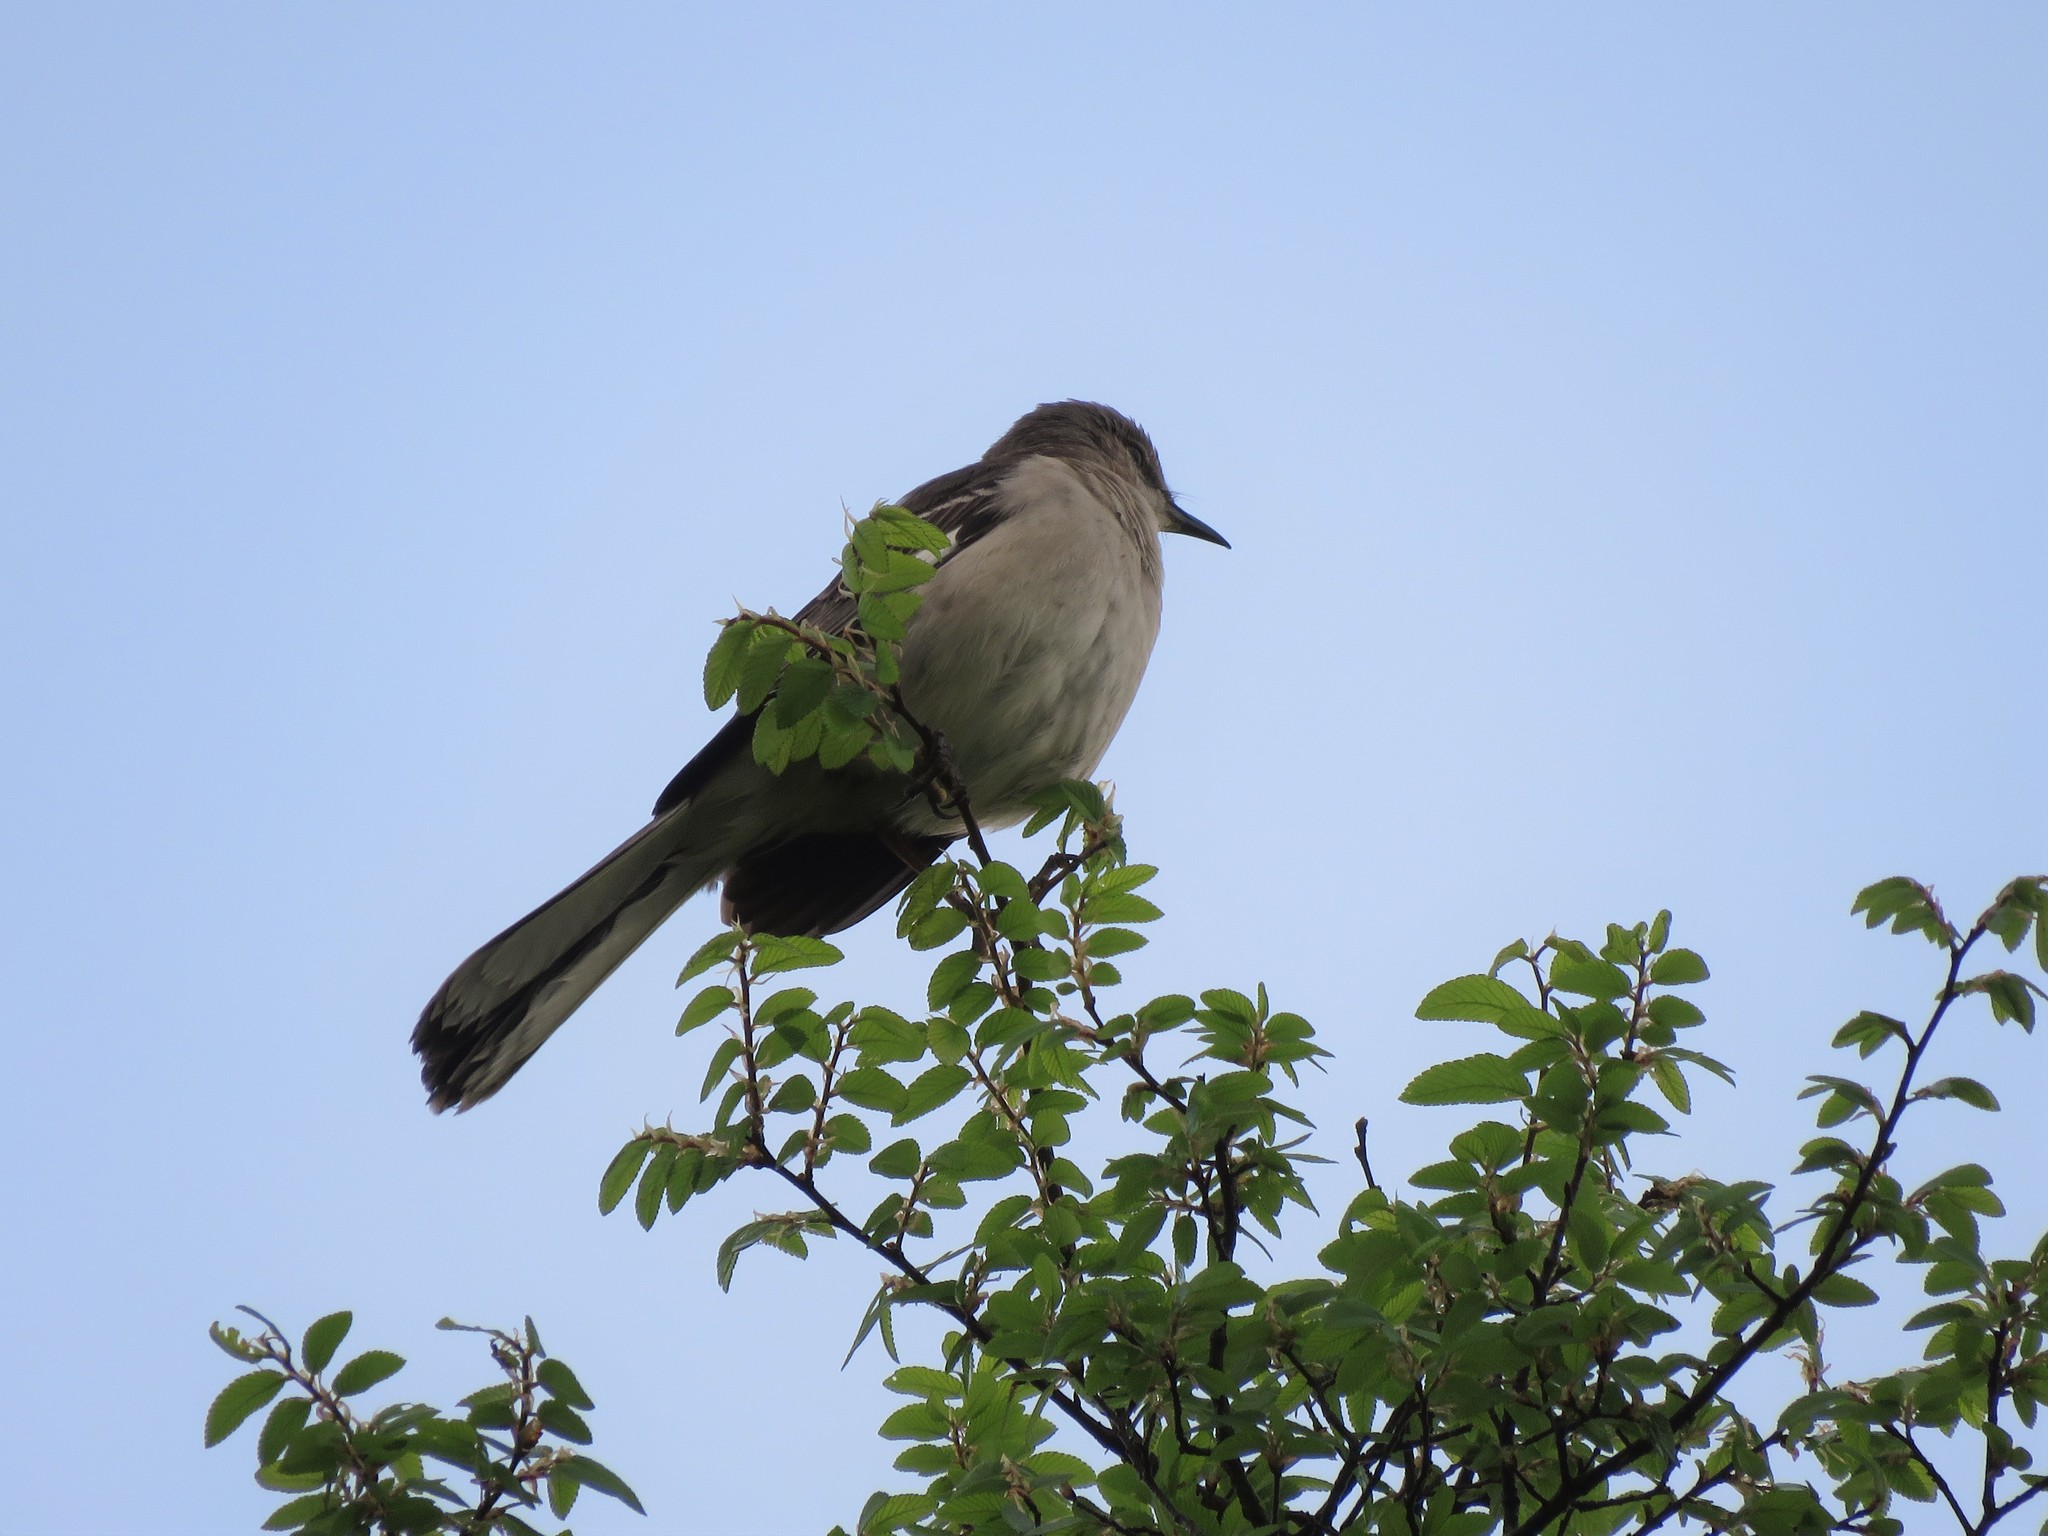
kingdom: Animalia
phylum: Chordata
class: Aves
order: Passeriformes
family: Mimidae
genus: Mimus
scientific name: Mimus polyglottos
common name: Northern mockingbird
